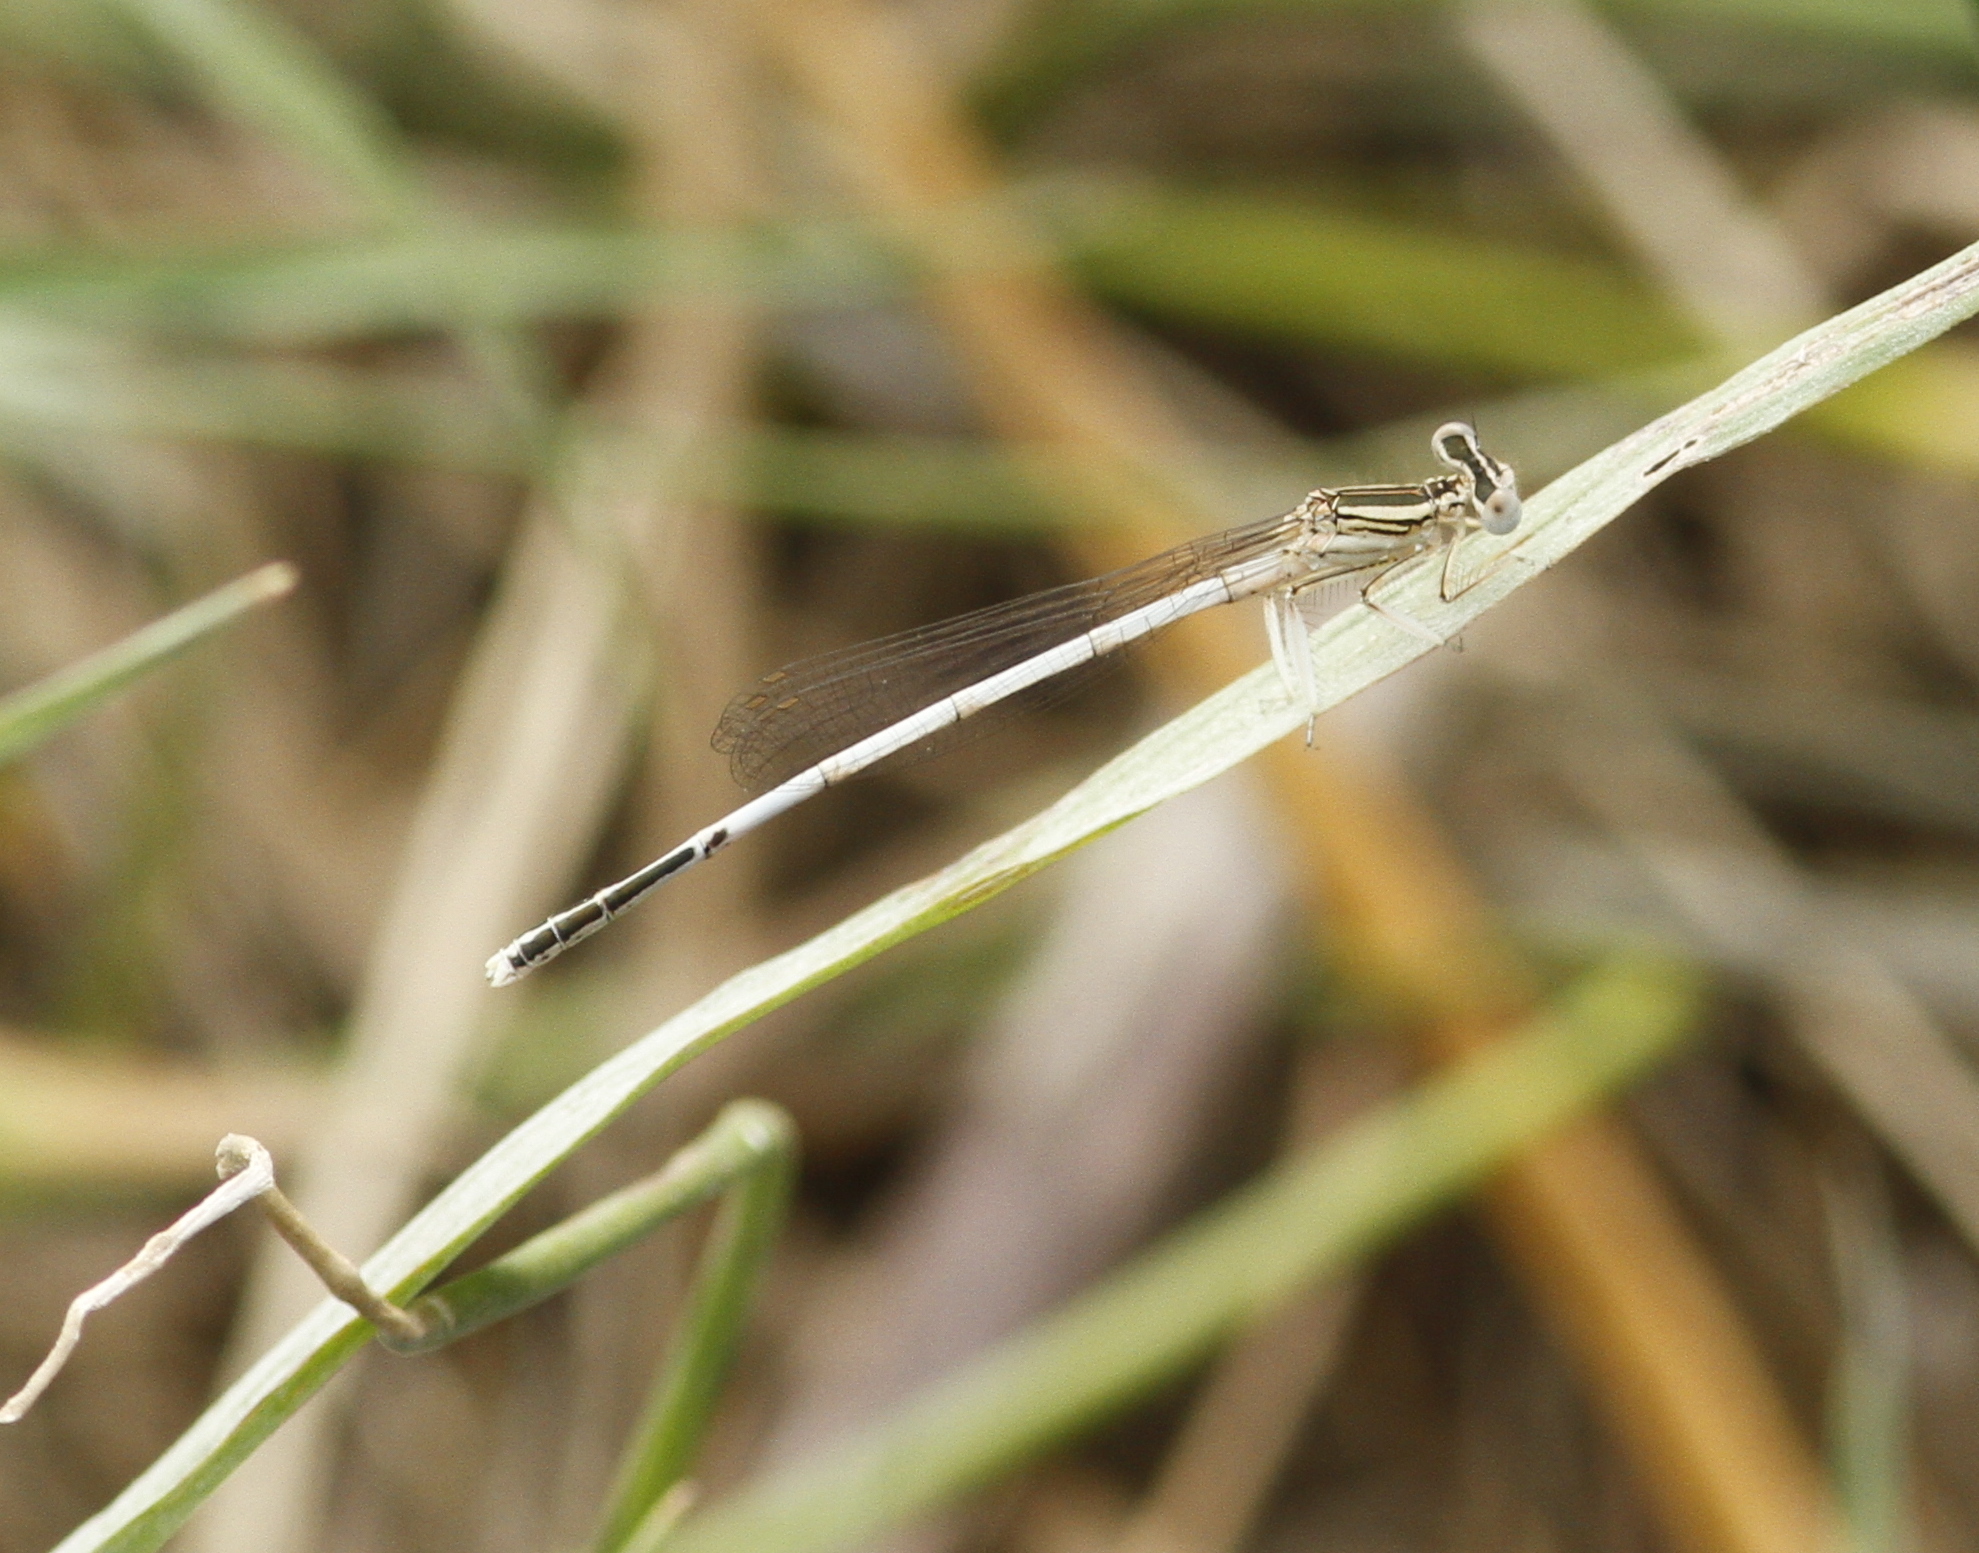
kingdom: Animalia
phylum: Arthropoda
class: Insecta
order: Odonata
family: Platycnemididae
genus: Platycnemis
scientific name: Platycnemis latipes
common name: White featherleg
